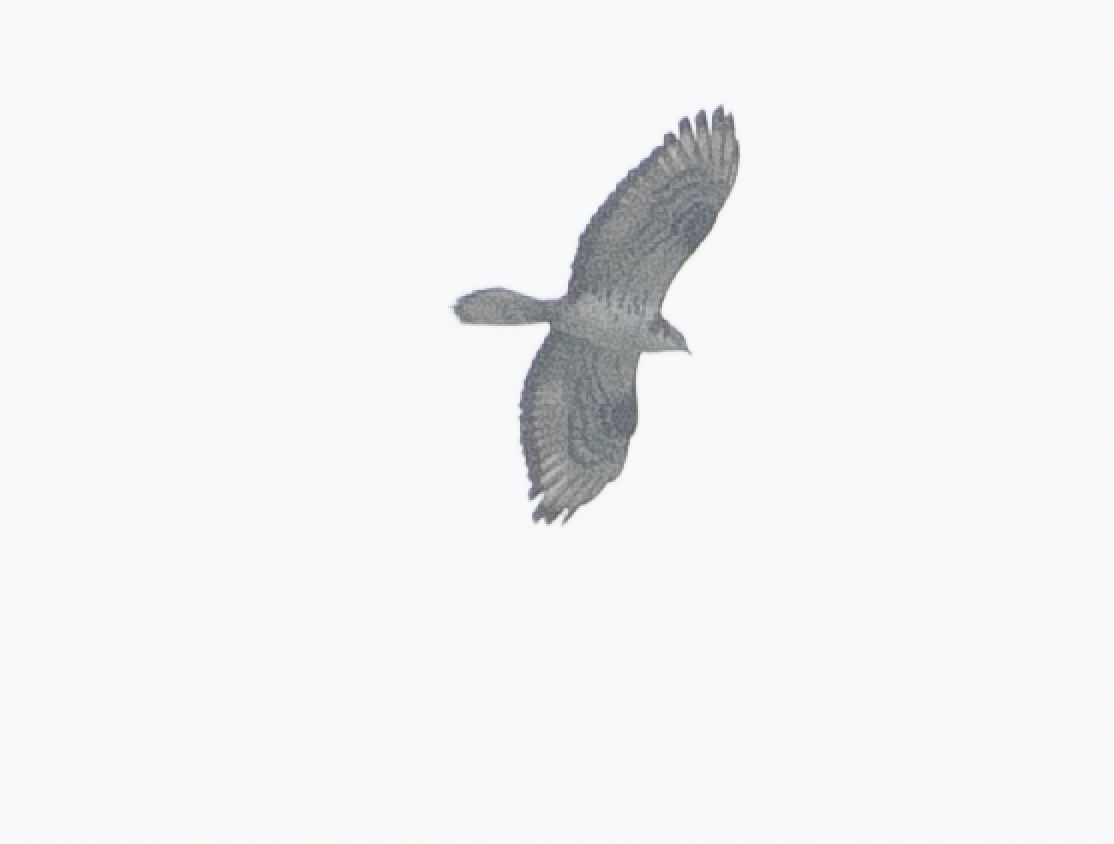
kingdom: Animalia
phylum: Chordata
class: Aves
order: Accipitriformes
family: Accipitridae
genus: Pernis
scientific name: Pernis apivorus
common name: European honey buzzard
